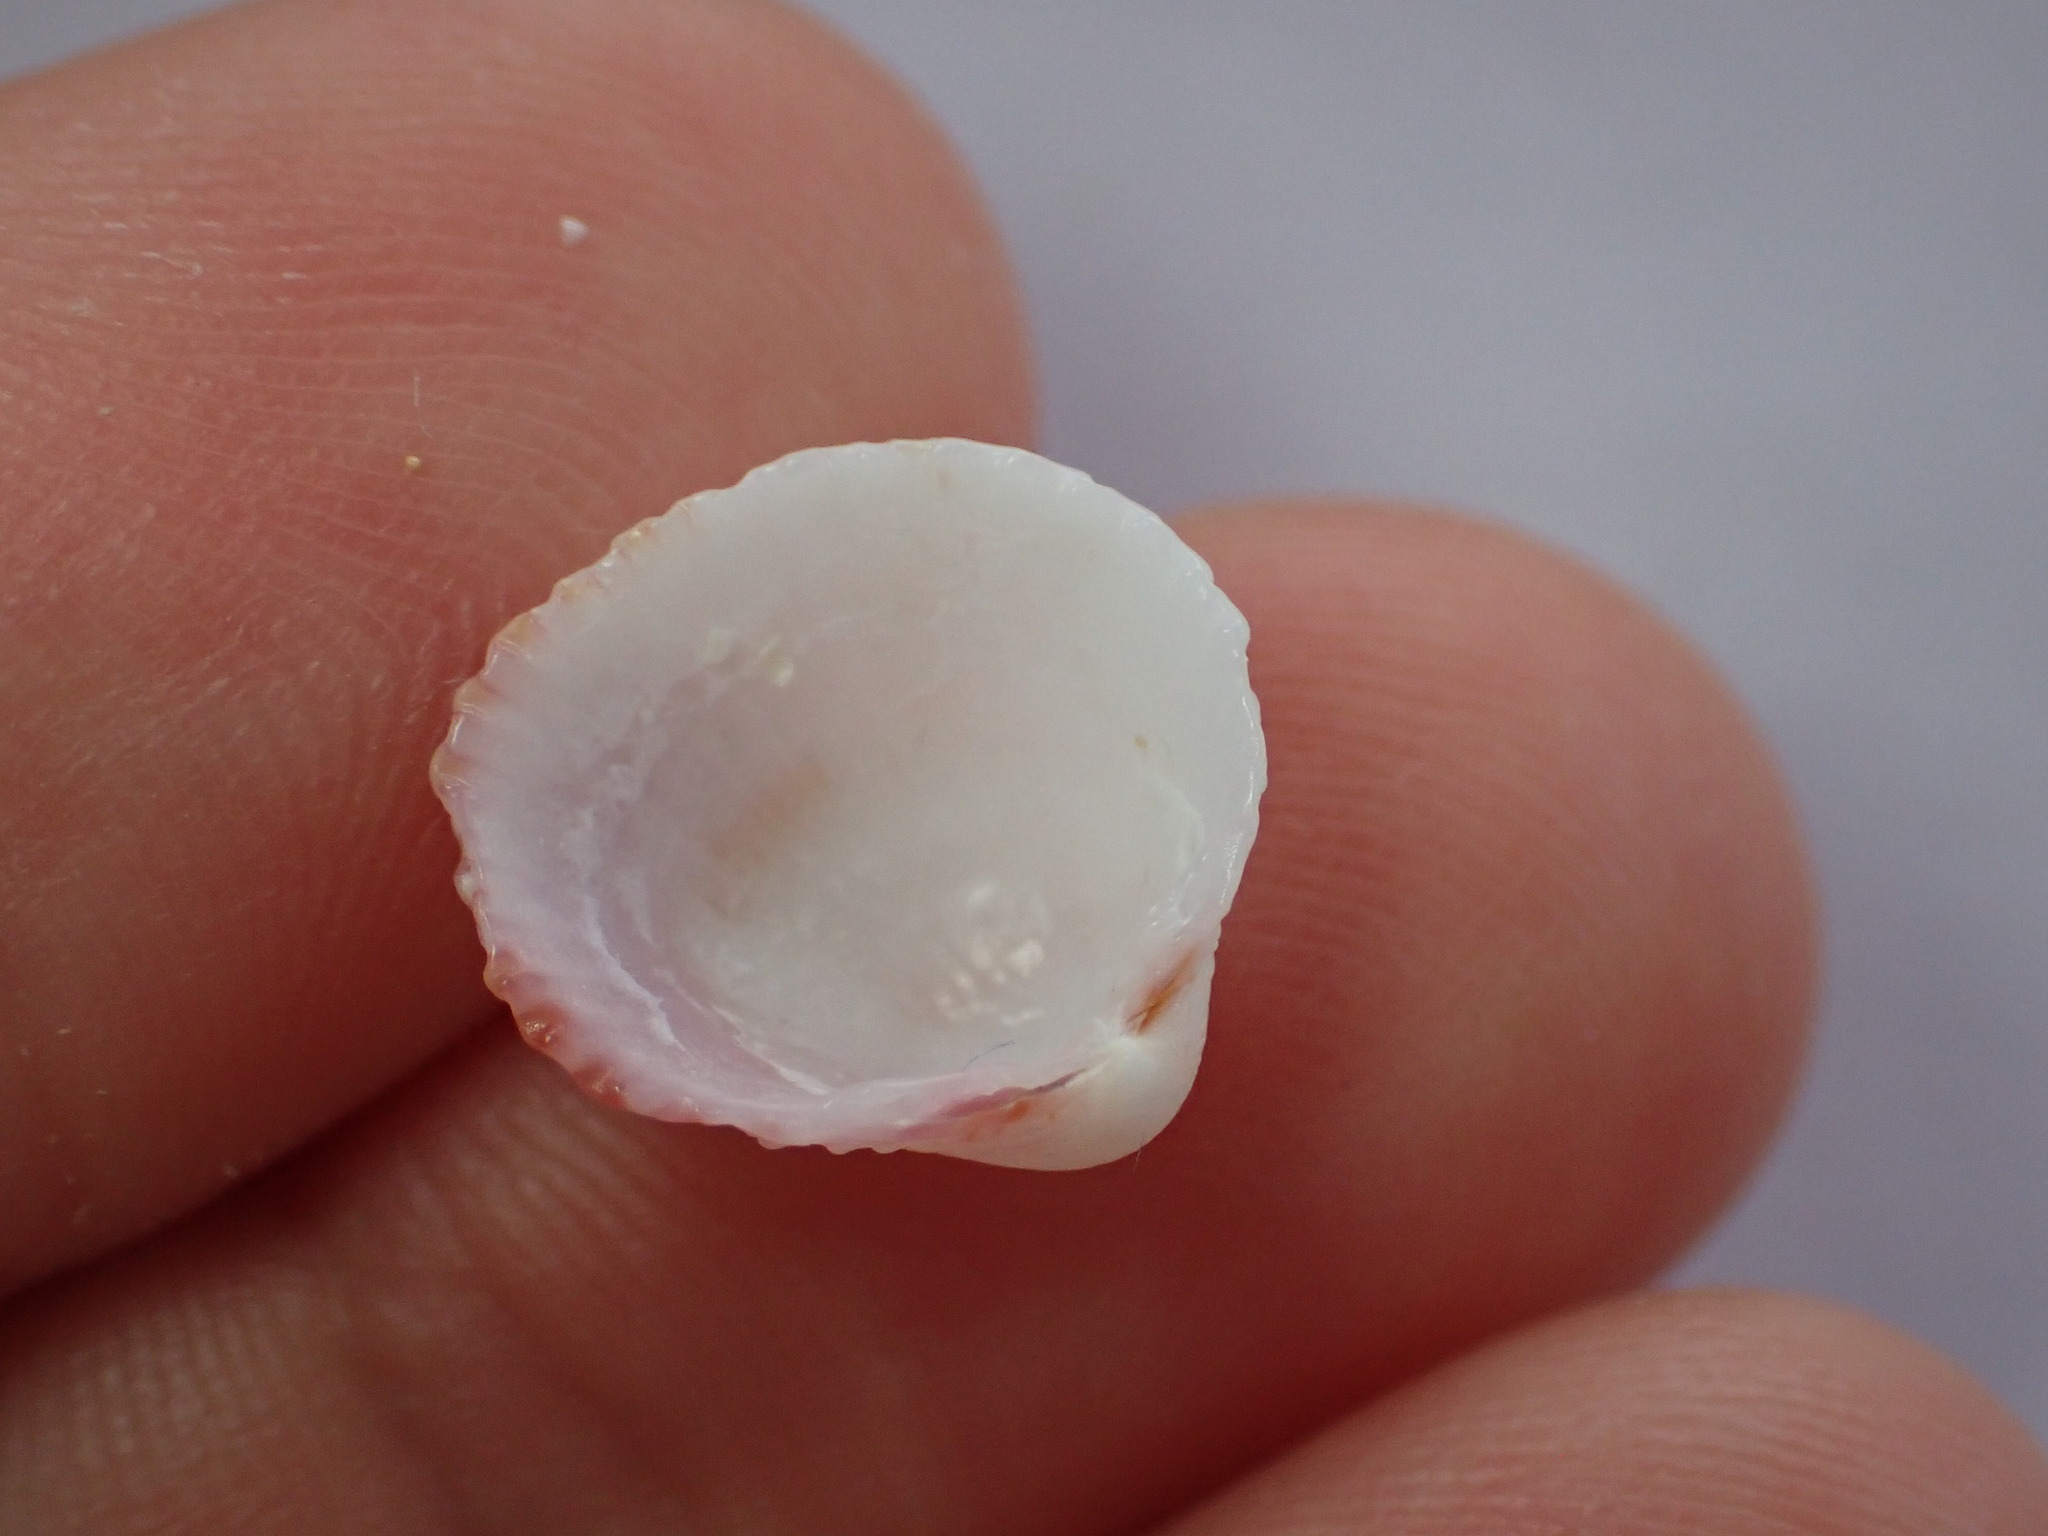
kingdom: Animalia
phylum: Mollusca
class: Bivalvia
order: Cardiida
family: Cardiidae
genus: Papillicardium
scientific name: Papillicardium papillosum
